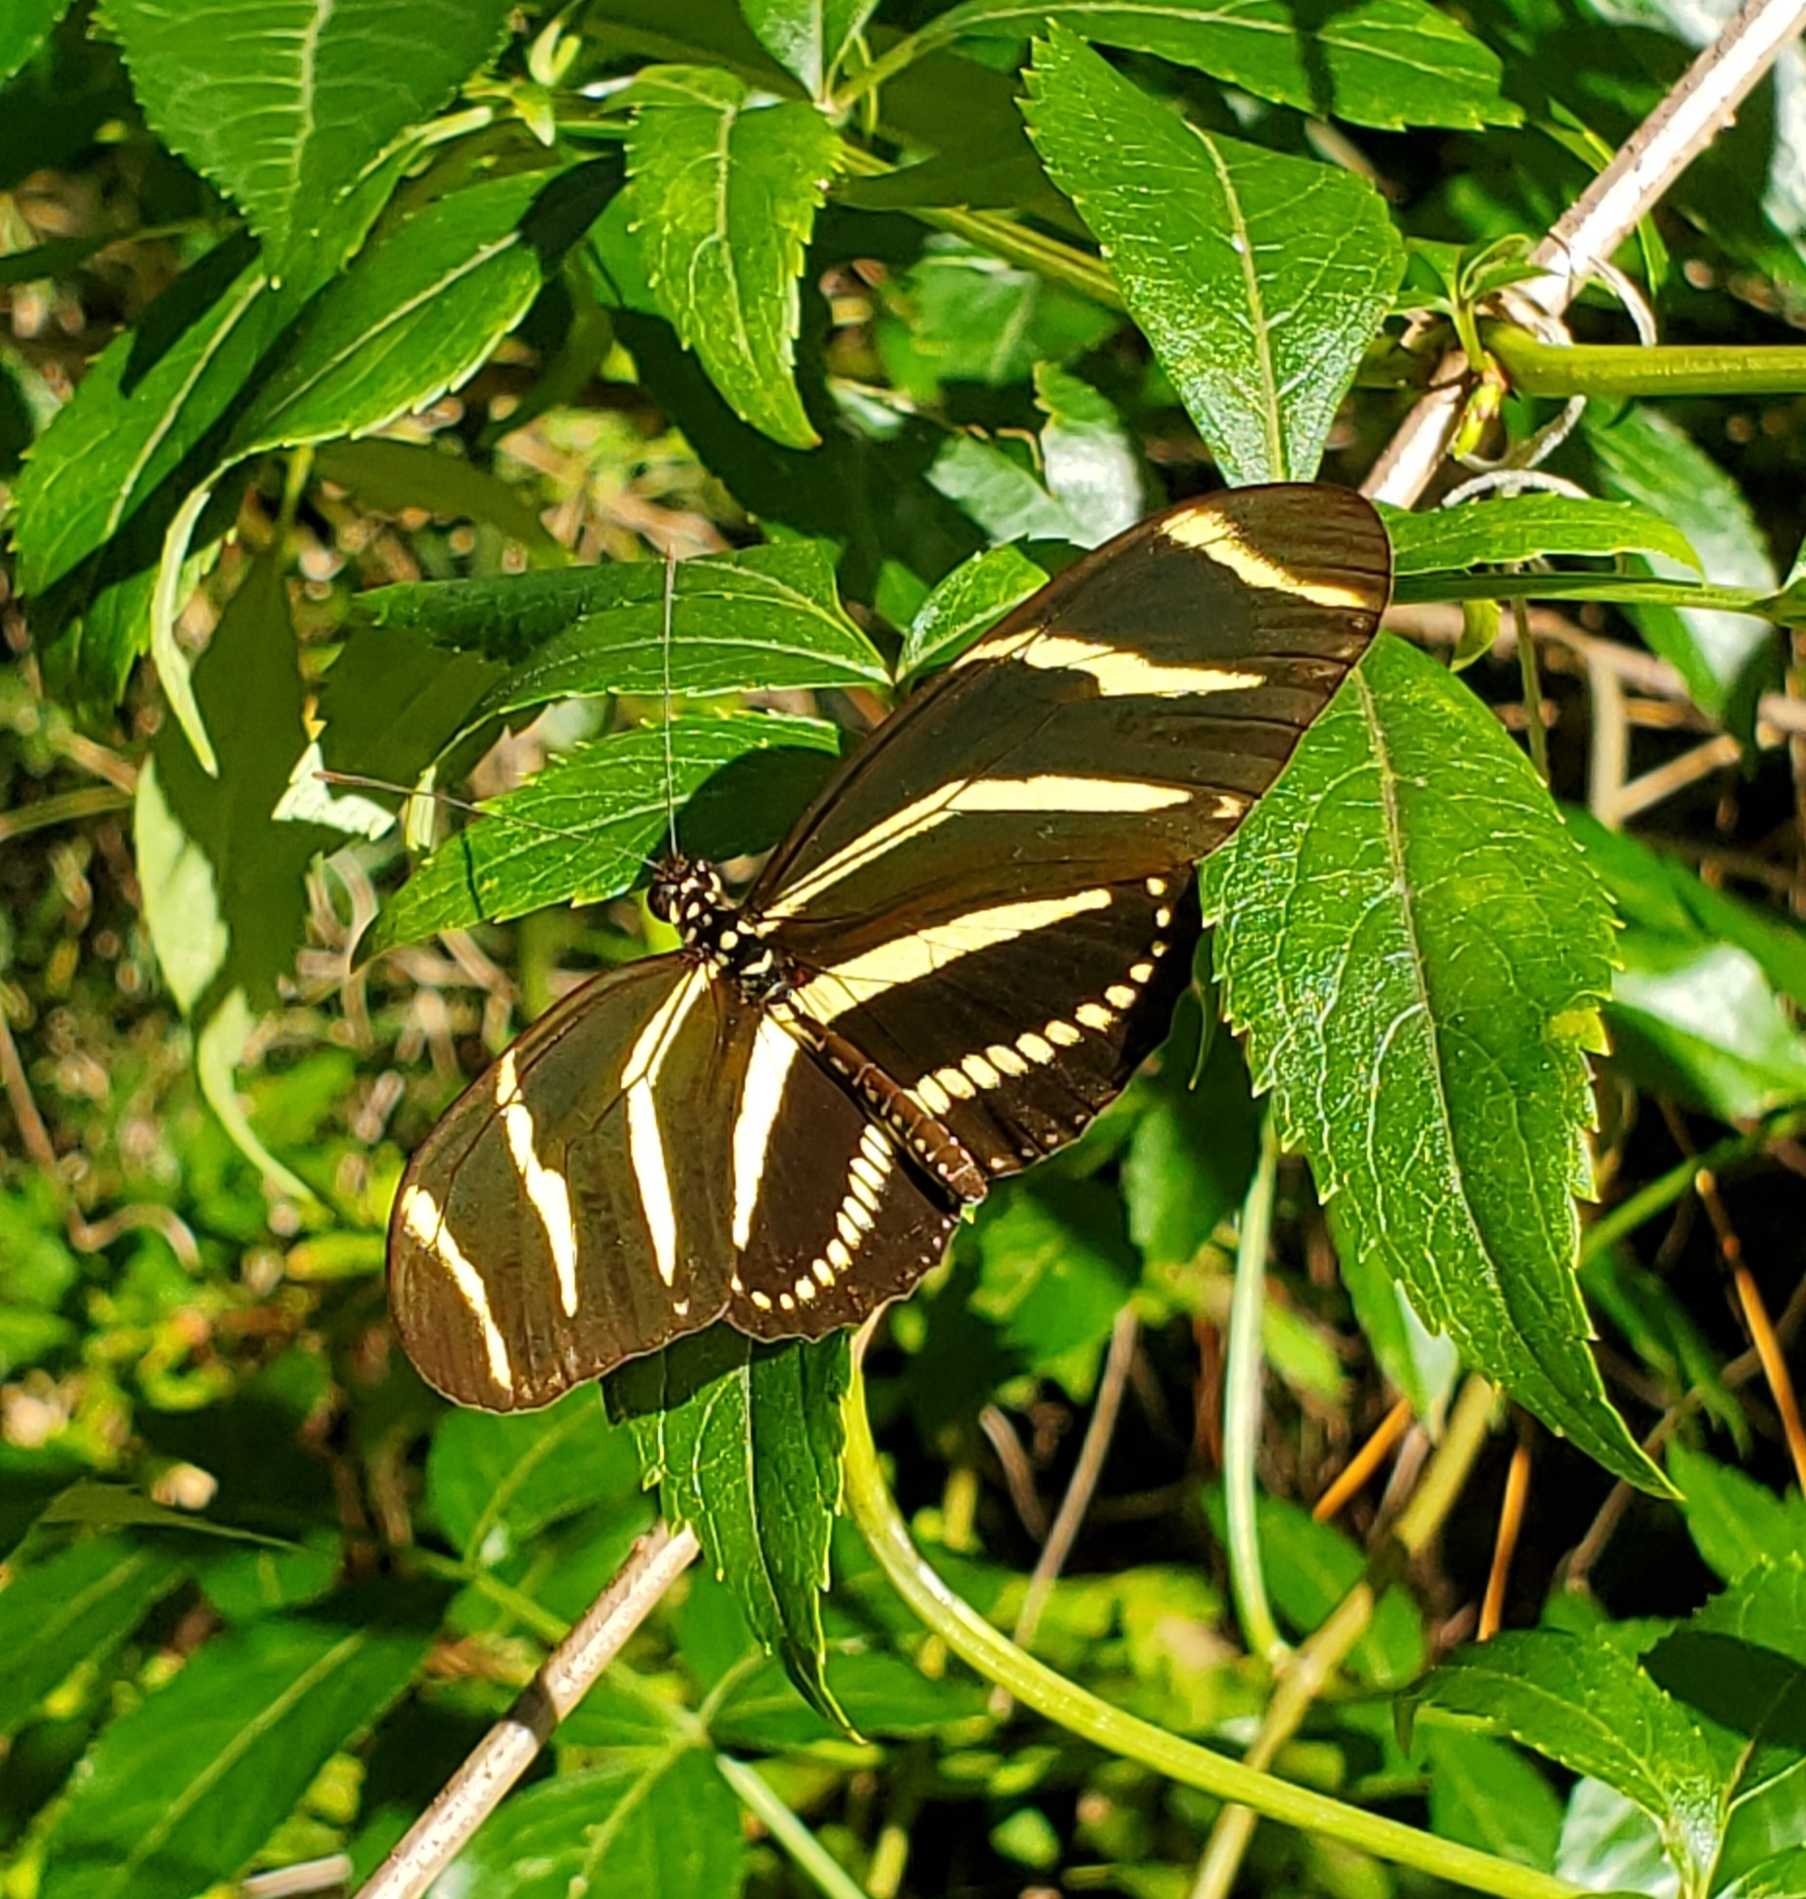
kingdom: Animalia
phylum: Arthropoda
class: Insecta
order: Lepidoptera
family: Nymphalidae
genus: Heliconius
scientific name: Heliconius charithonia
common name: Zebra long wing
